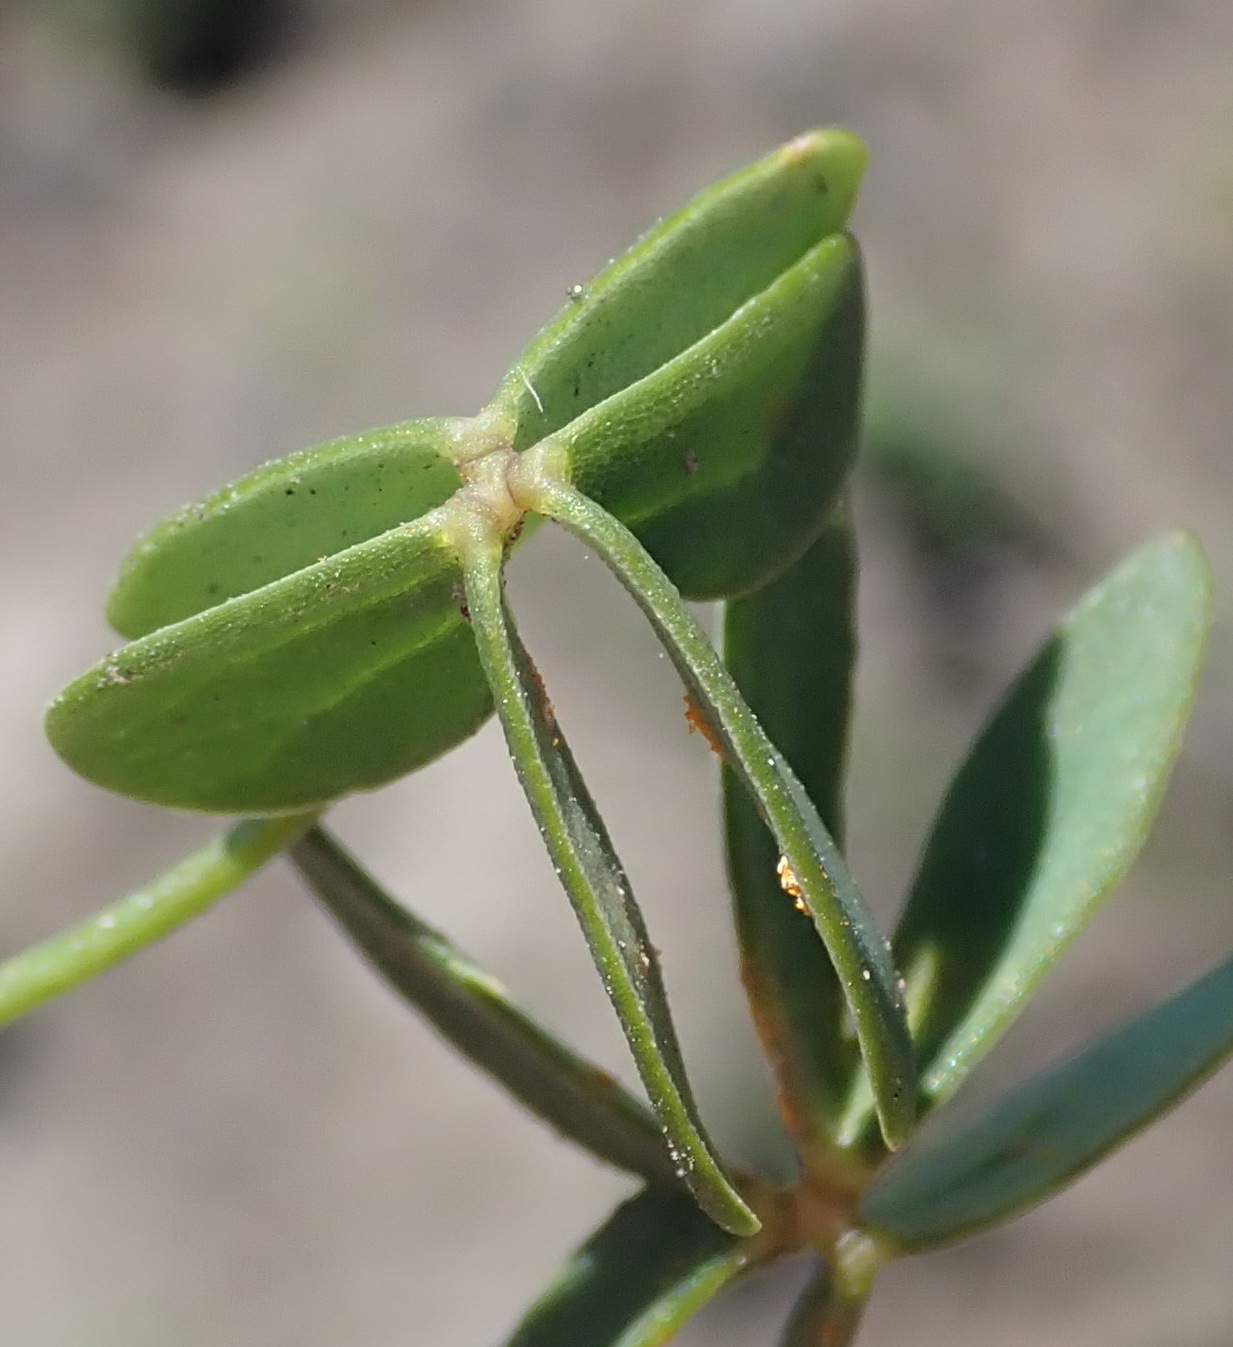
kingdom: Plantae
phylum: Tracheophyta
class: Magnoliopsida
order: Oxalidales
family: Oxalidaceae
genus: Oxalis
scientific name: Oxalis smithiana
